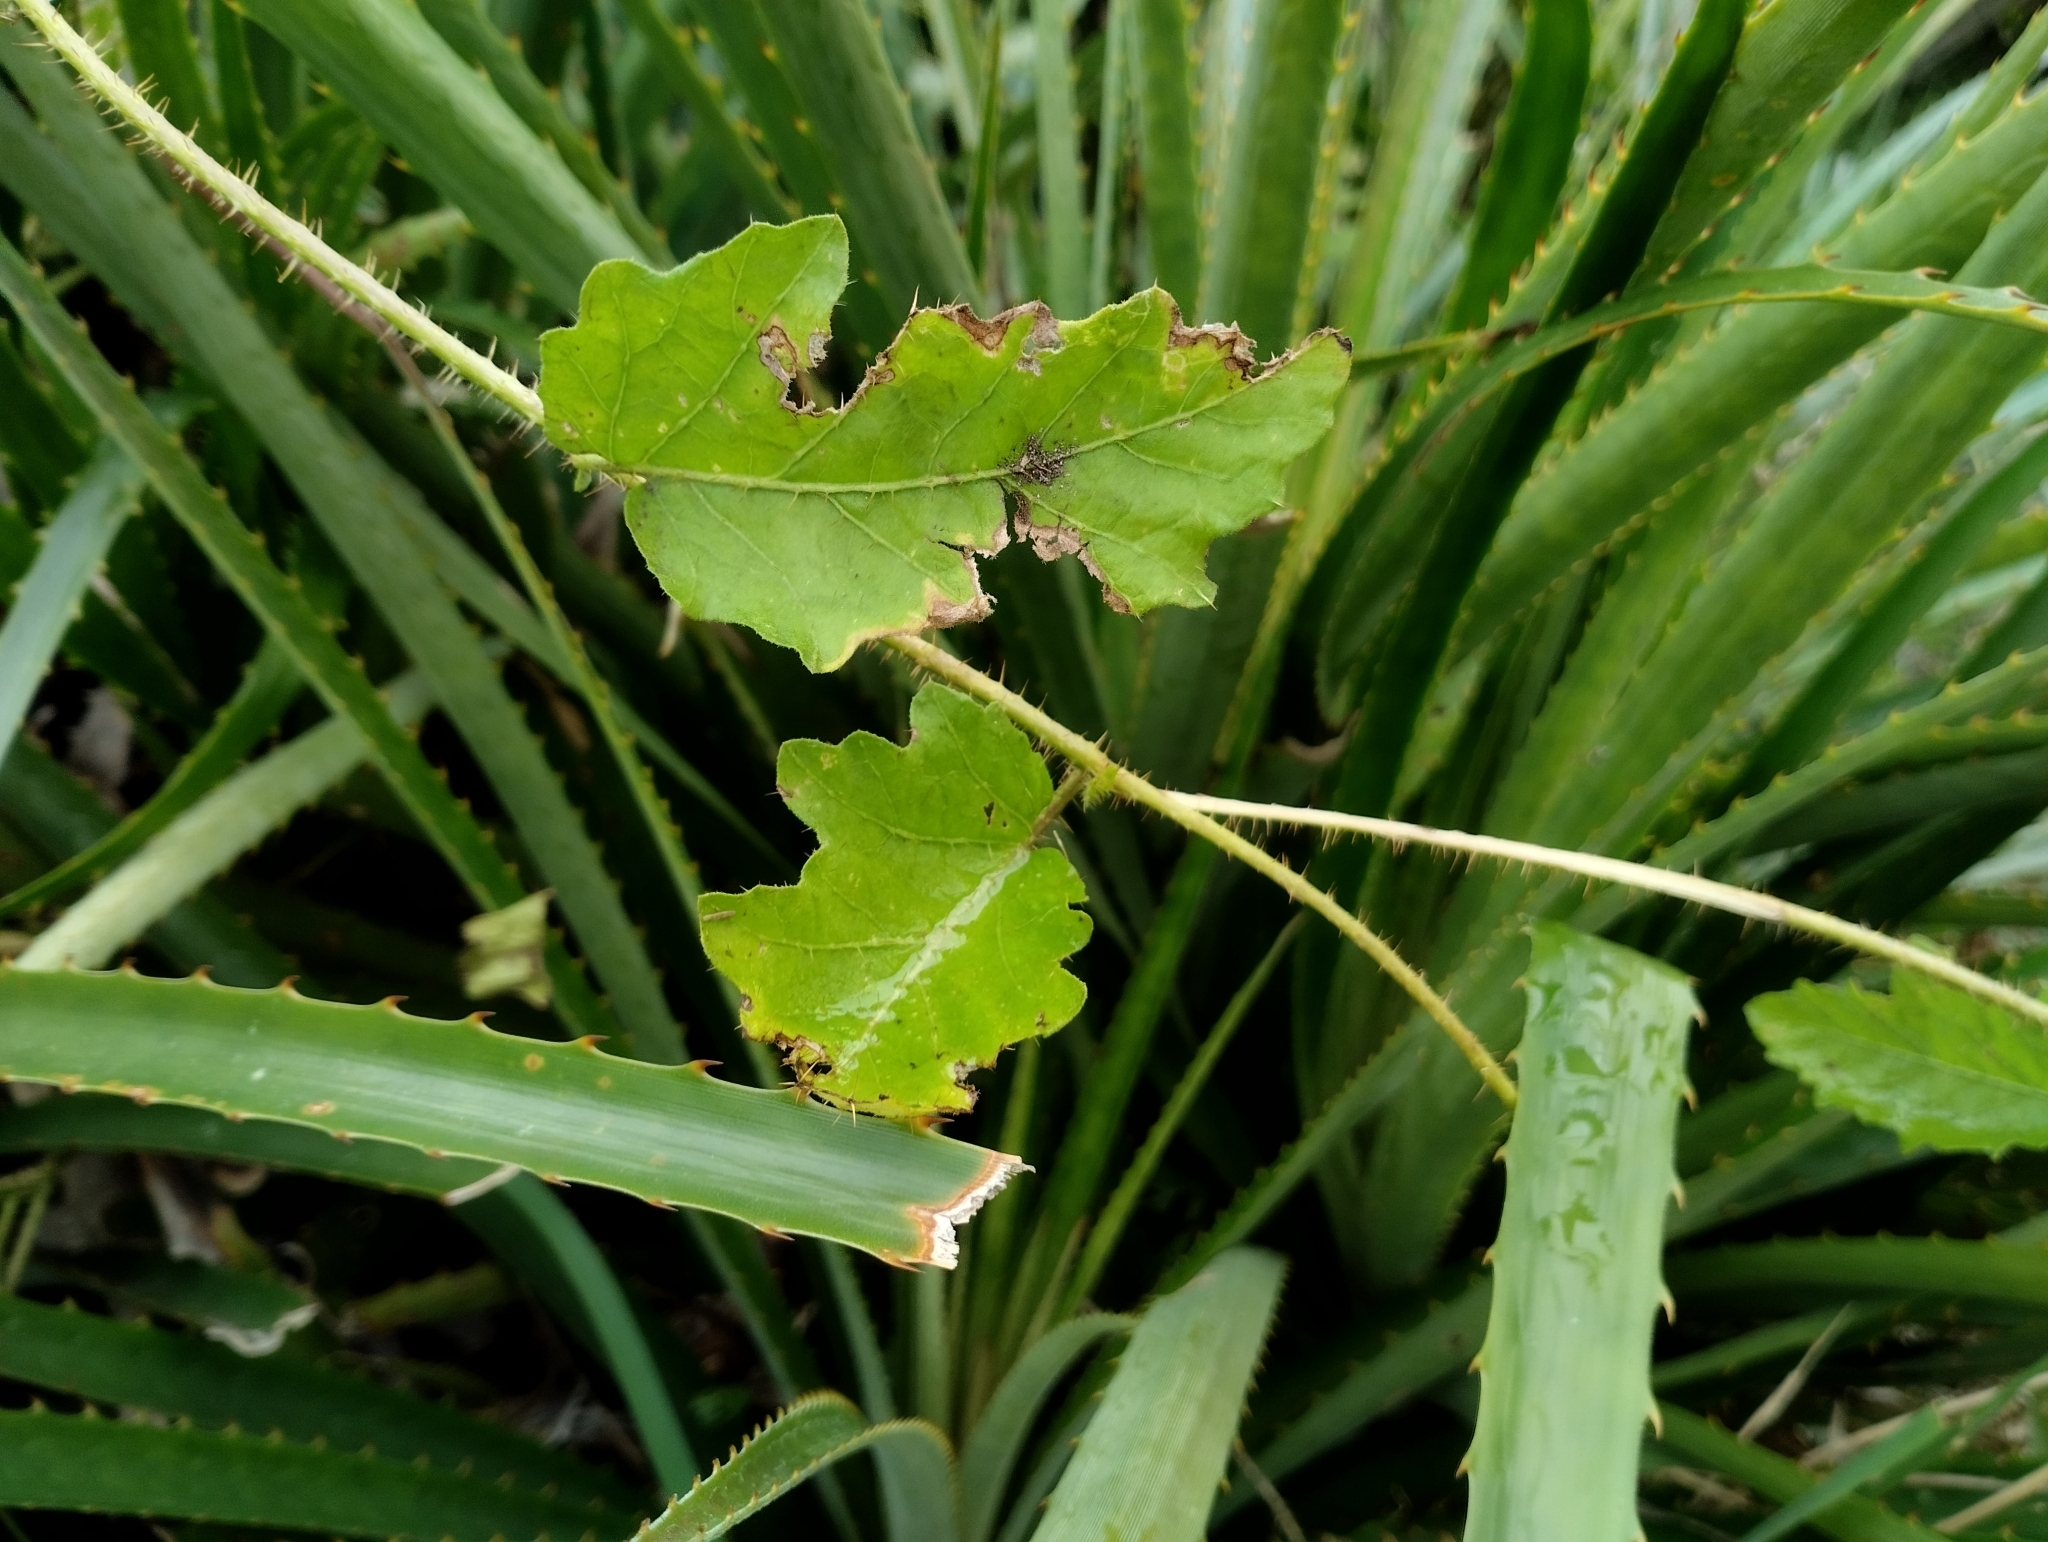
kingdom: Plantae
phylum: Tracheophyta
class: Magnoliopsida
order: Solanales
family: Solanaceae
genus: Solanum
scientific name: Solanum reineckii
